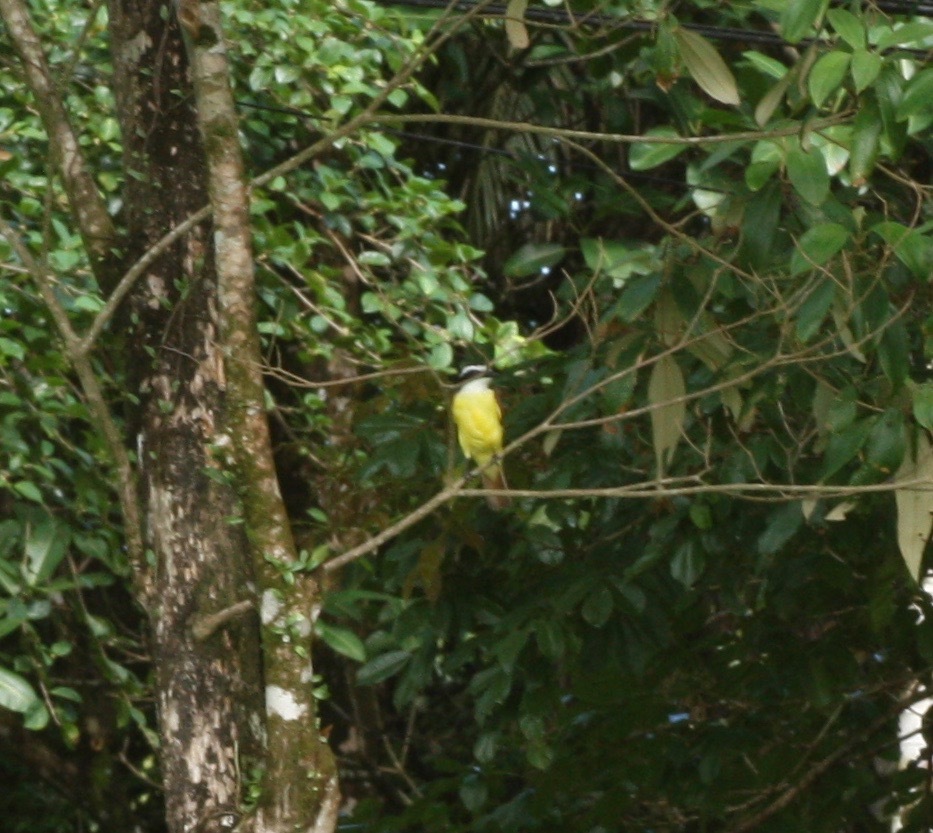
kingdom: Animalia
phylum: Chordata
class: Aves
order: Passeriformes
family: Tyrannidae
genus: Pitangus
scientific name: Pitangus sulphuratus
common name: Great kiskadee
